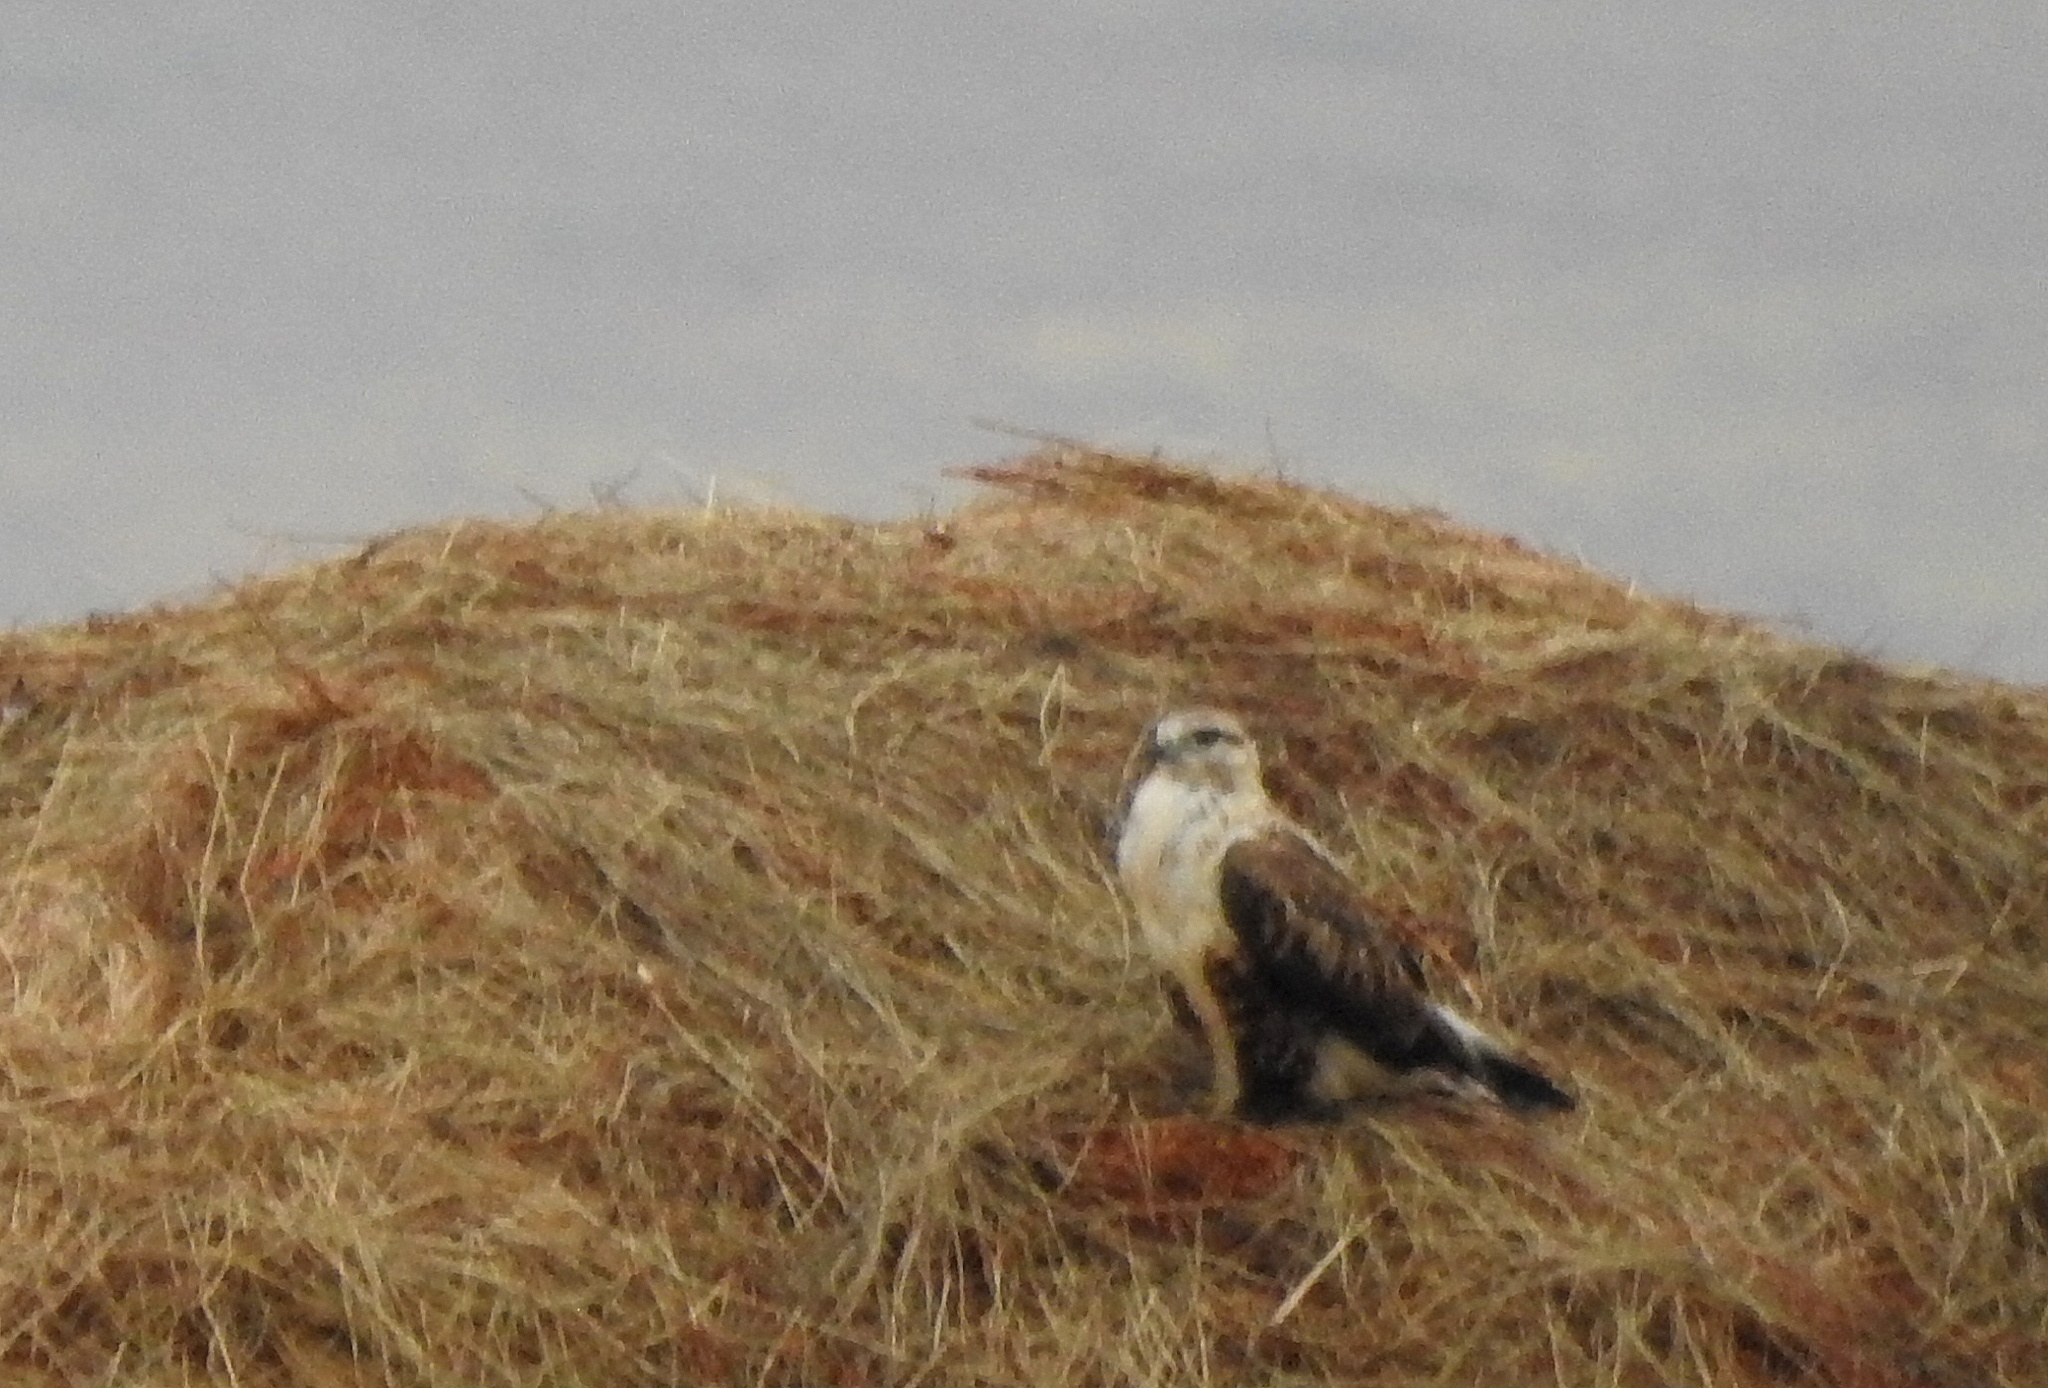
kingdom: Animalia
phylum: Chordata
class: Aves
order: Accipitriformes
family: Accipitridae
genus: Buteo
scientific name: Buteo hemilasius
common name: Upland buzzard
